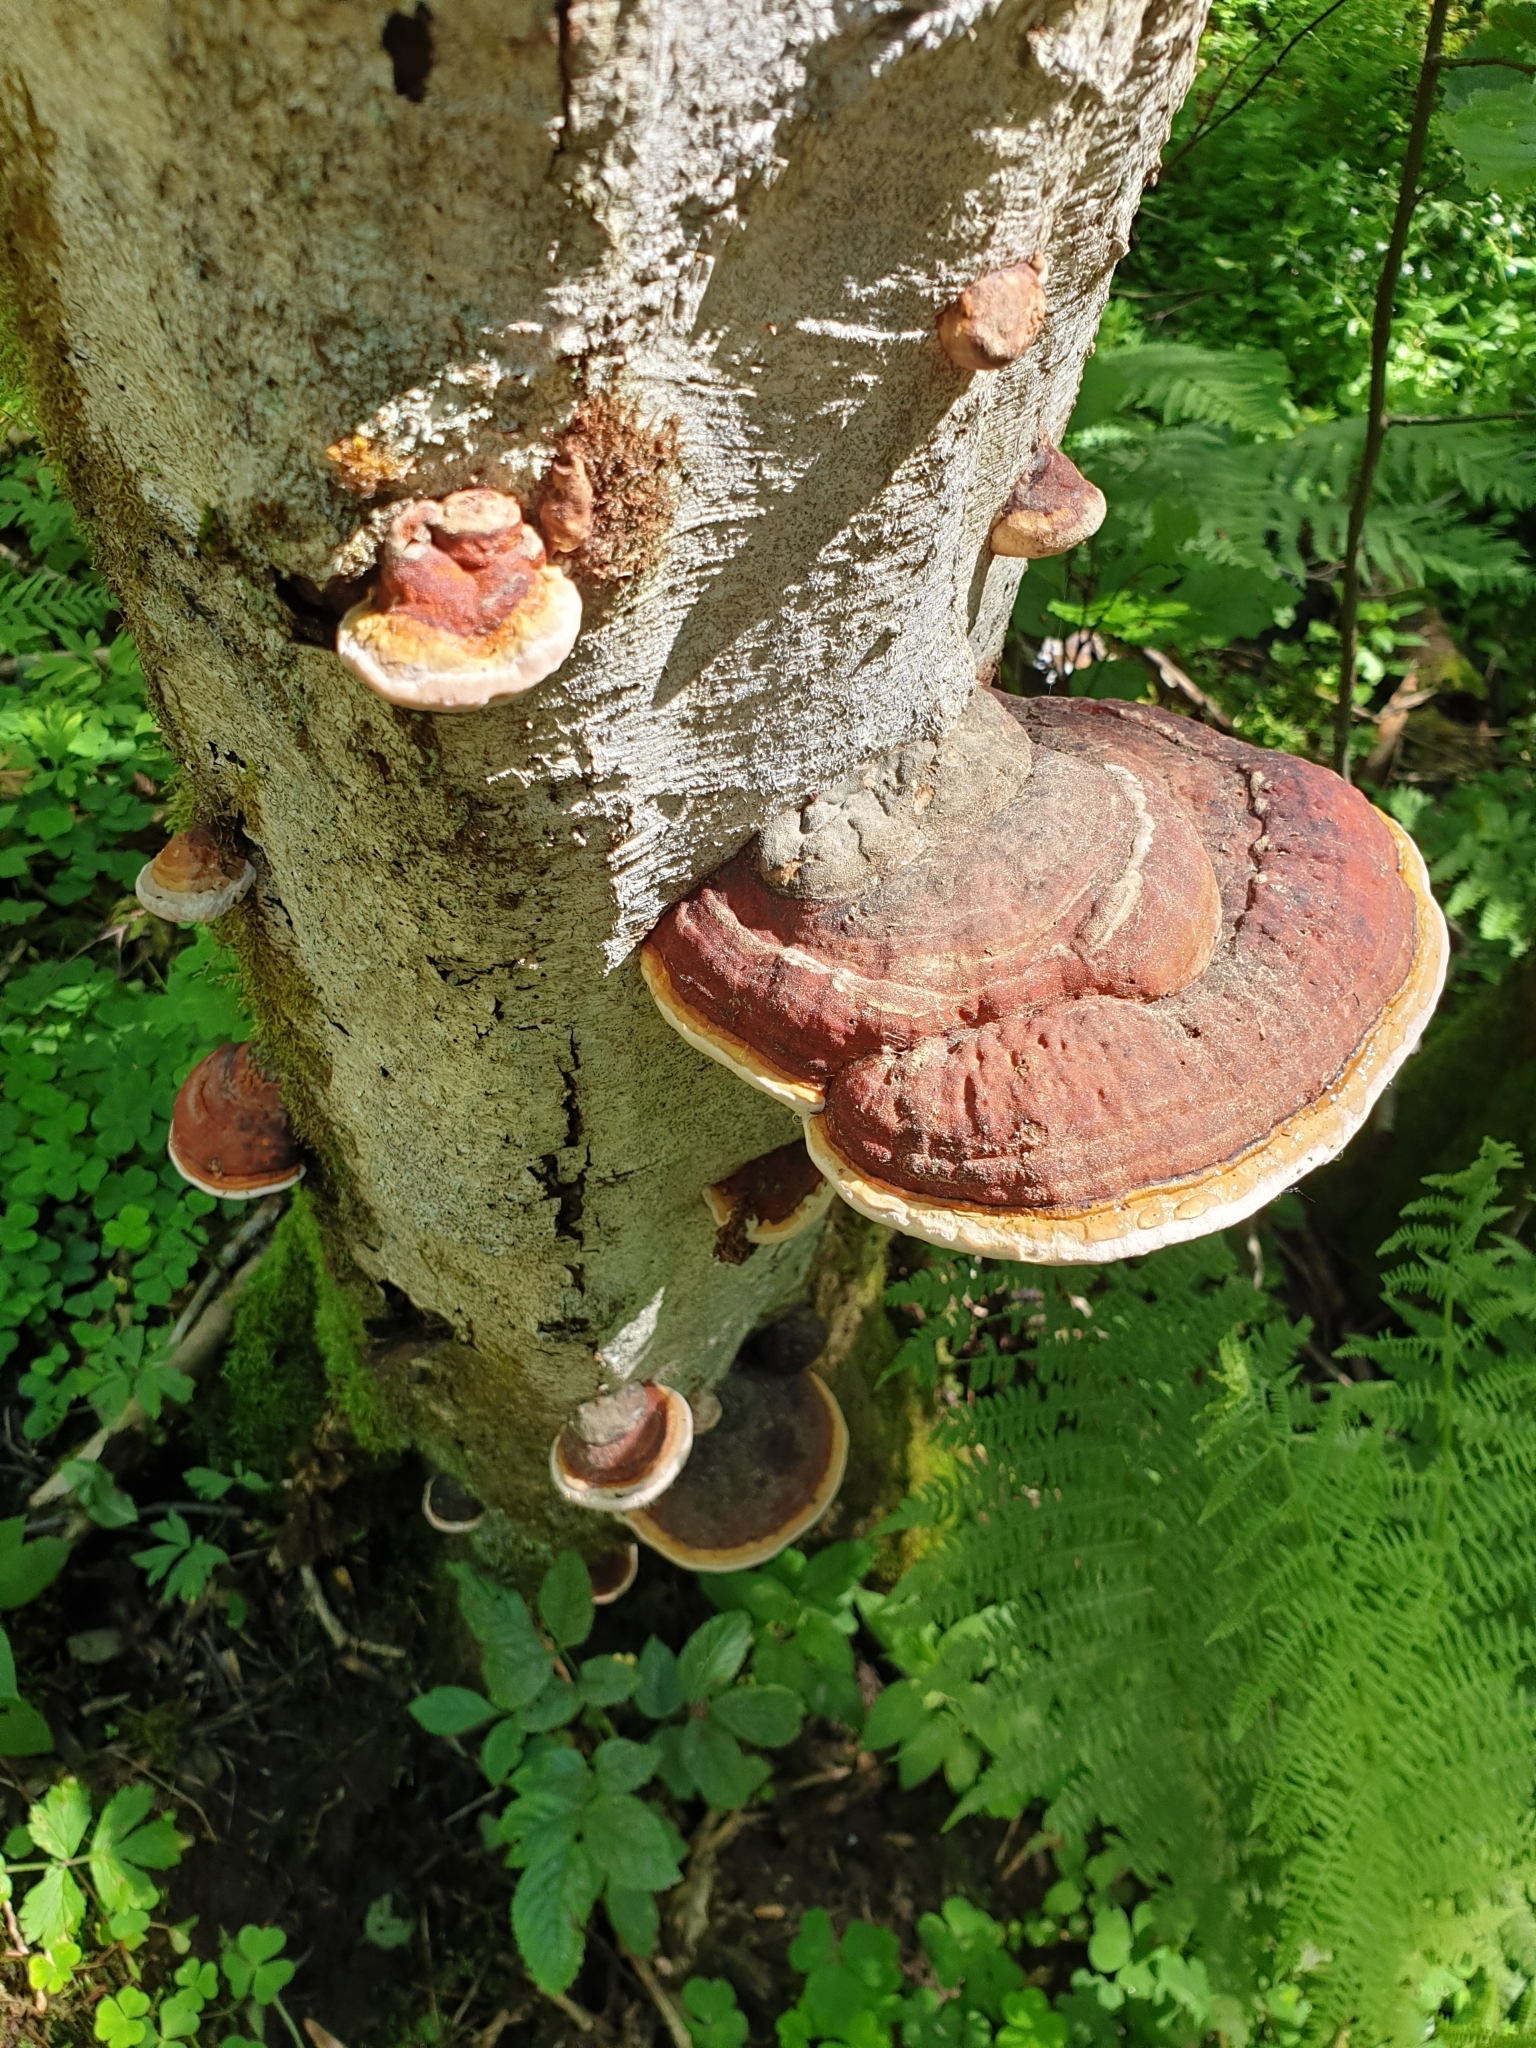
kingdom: Fungi
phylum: Basidiomycota
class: Agaricomycetes
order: Polyporales
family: Fomitopsidaceae
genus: Fomitopsis
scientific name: Fomitopsis pinicola
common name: Red-belted bracket
